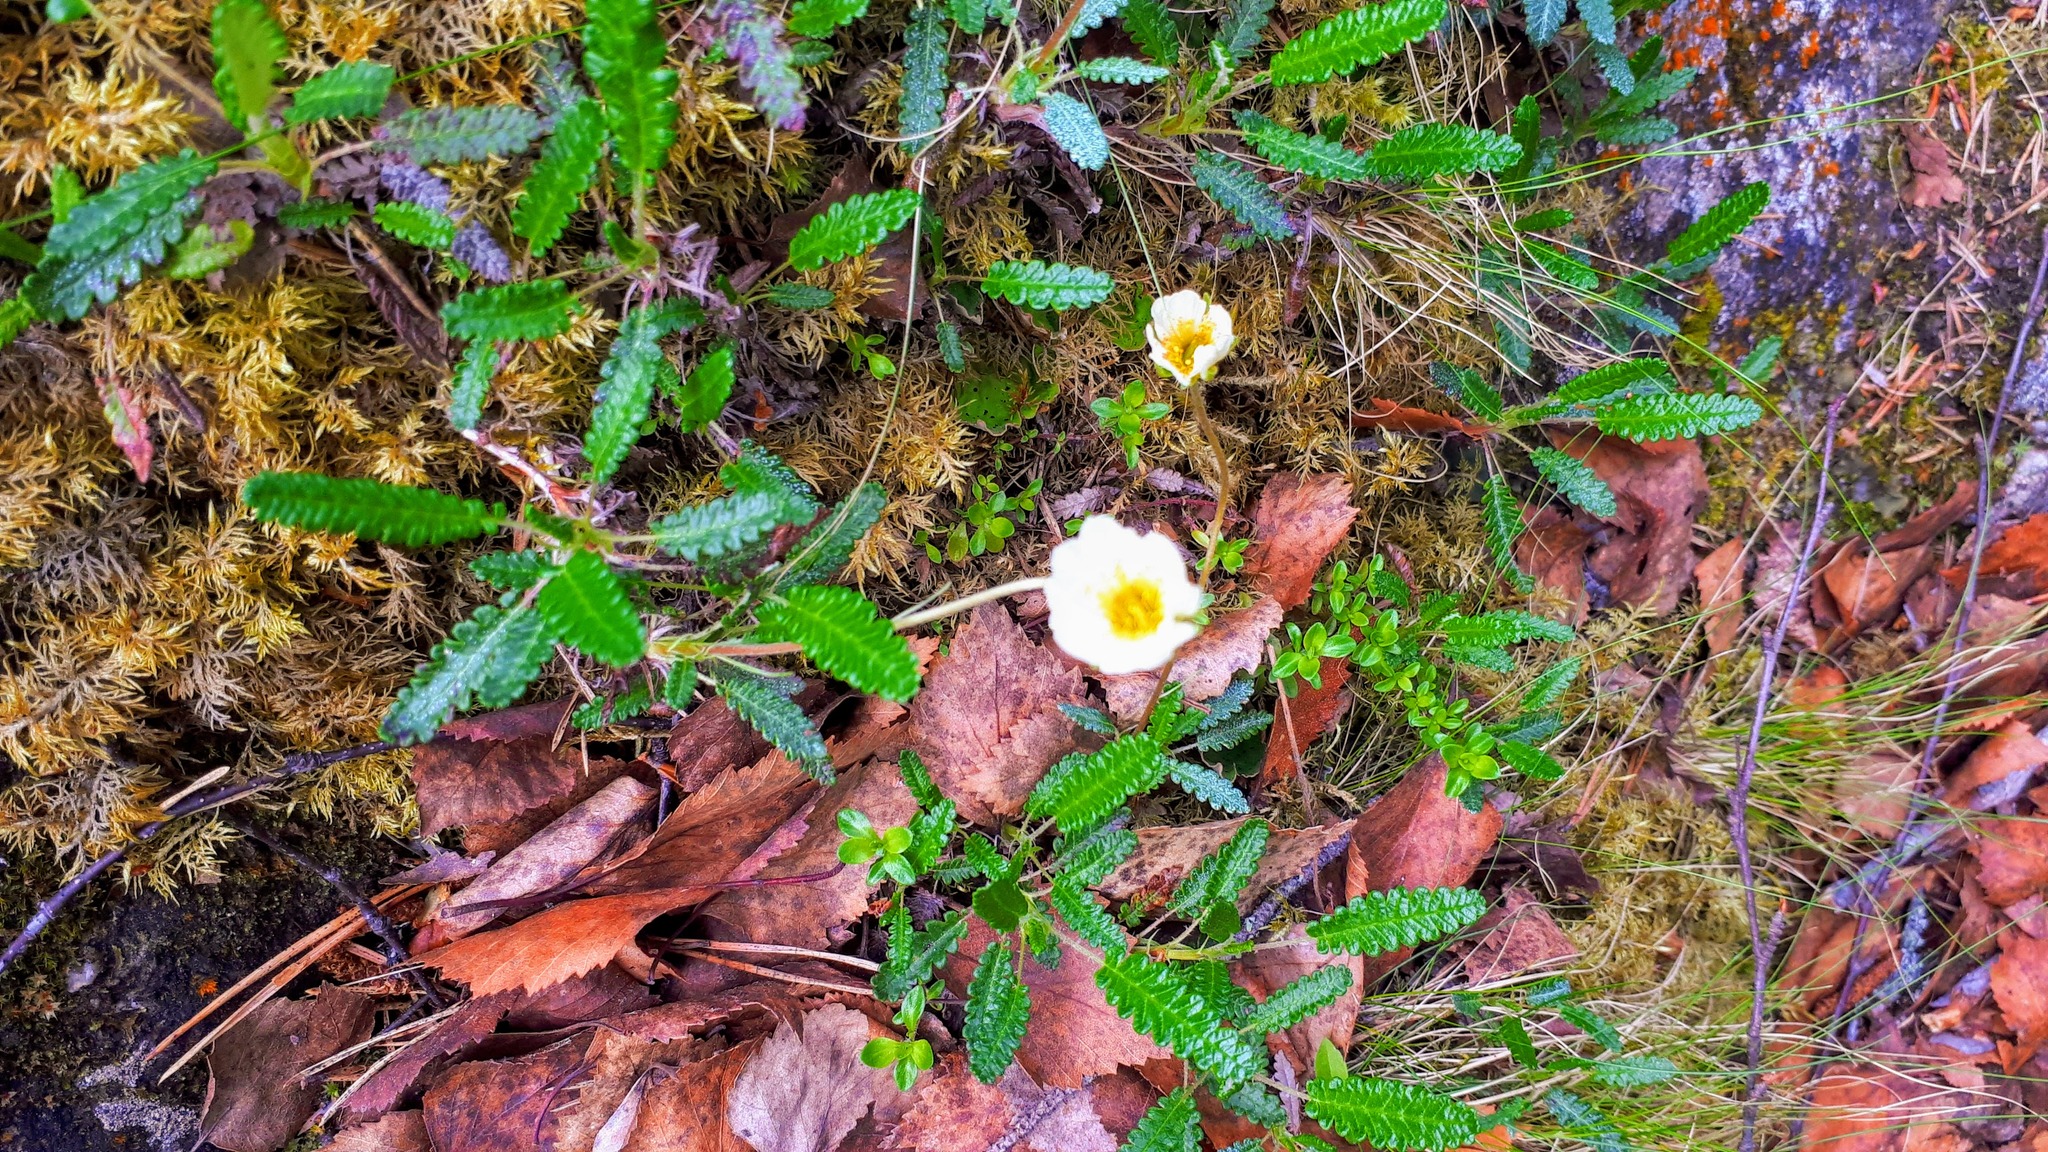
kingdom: Plantae
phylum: Tracheophyta
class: Magnoliopsida
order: Rosales
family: Rosaceae
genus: Dryas
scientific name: Dryas octopetala
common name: Eight-petal mountain-avens
